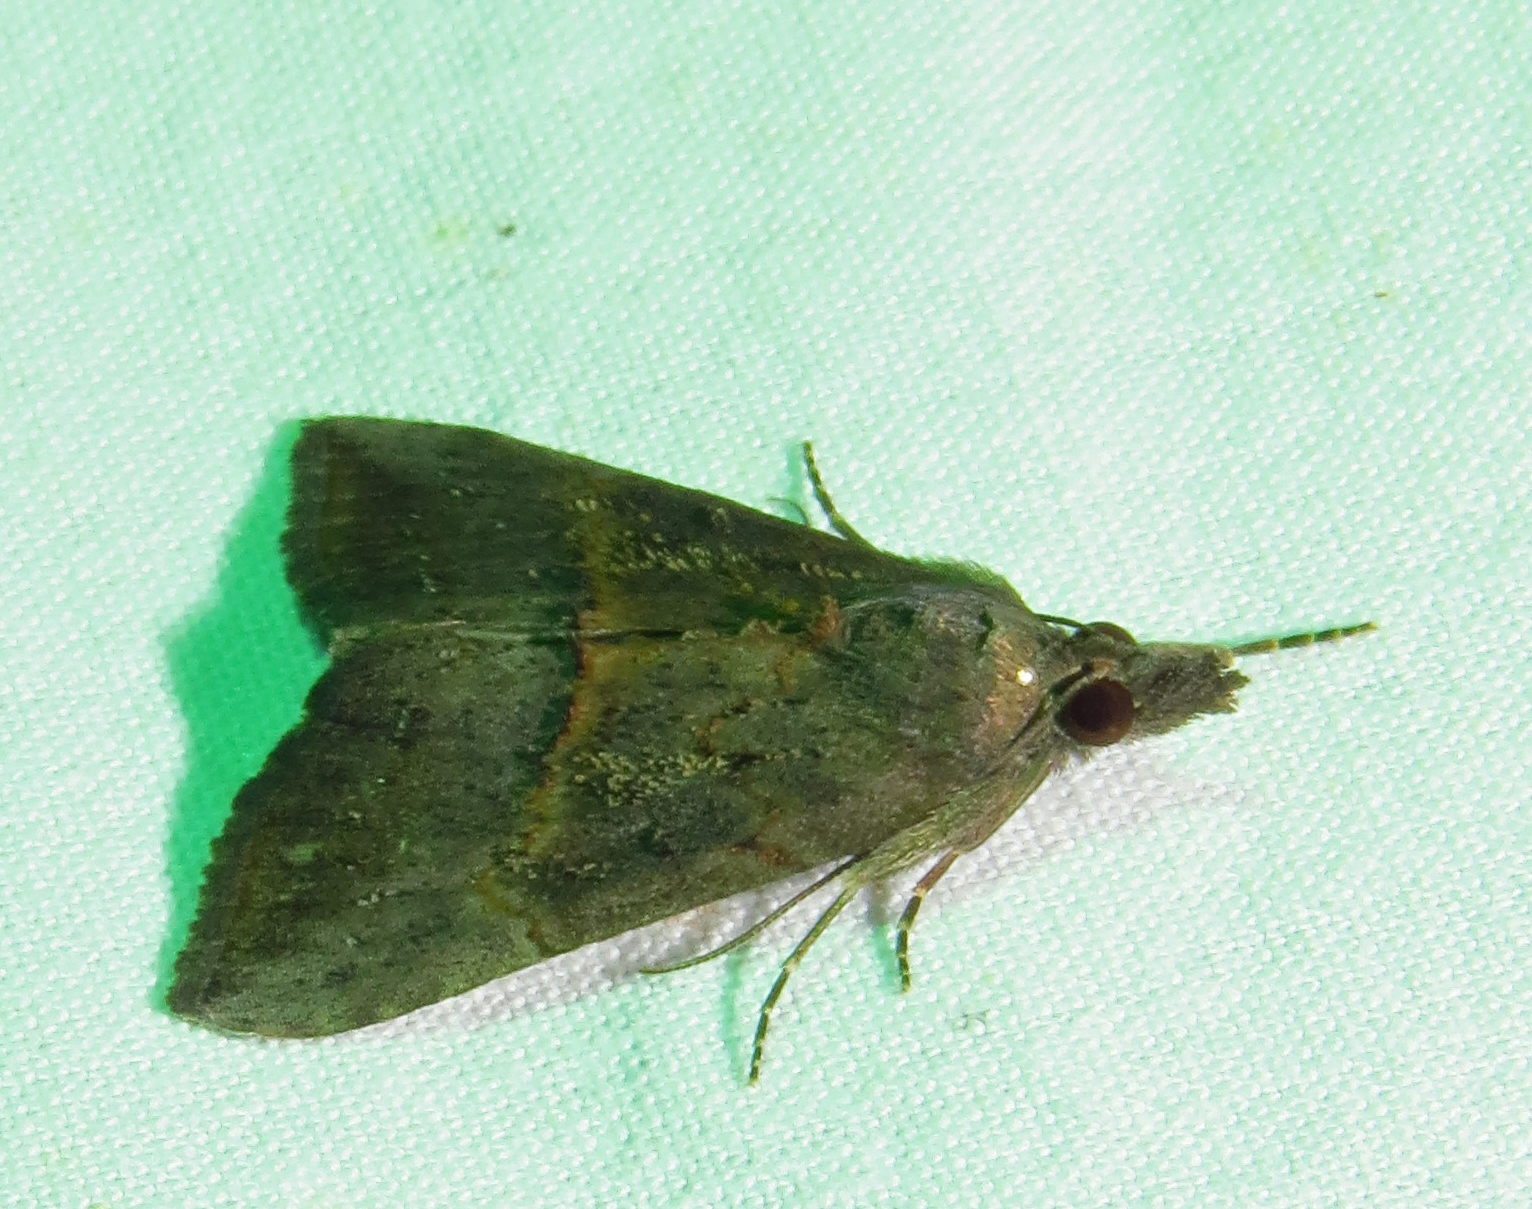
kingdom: Animalia
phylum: Arthropoda
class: Insecta
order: Lepidoptera
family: Erebidae
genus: Hypena
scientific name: Hypena scabra
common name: Green cloverworm
